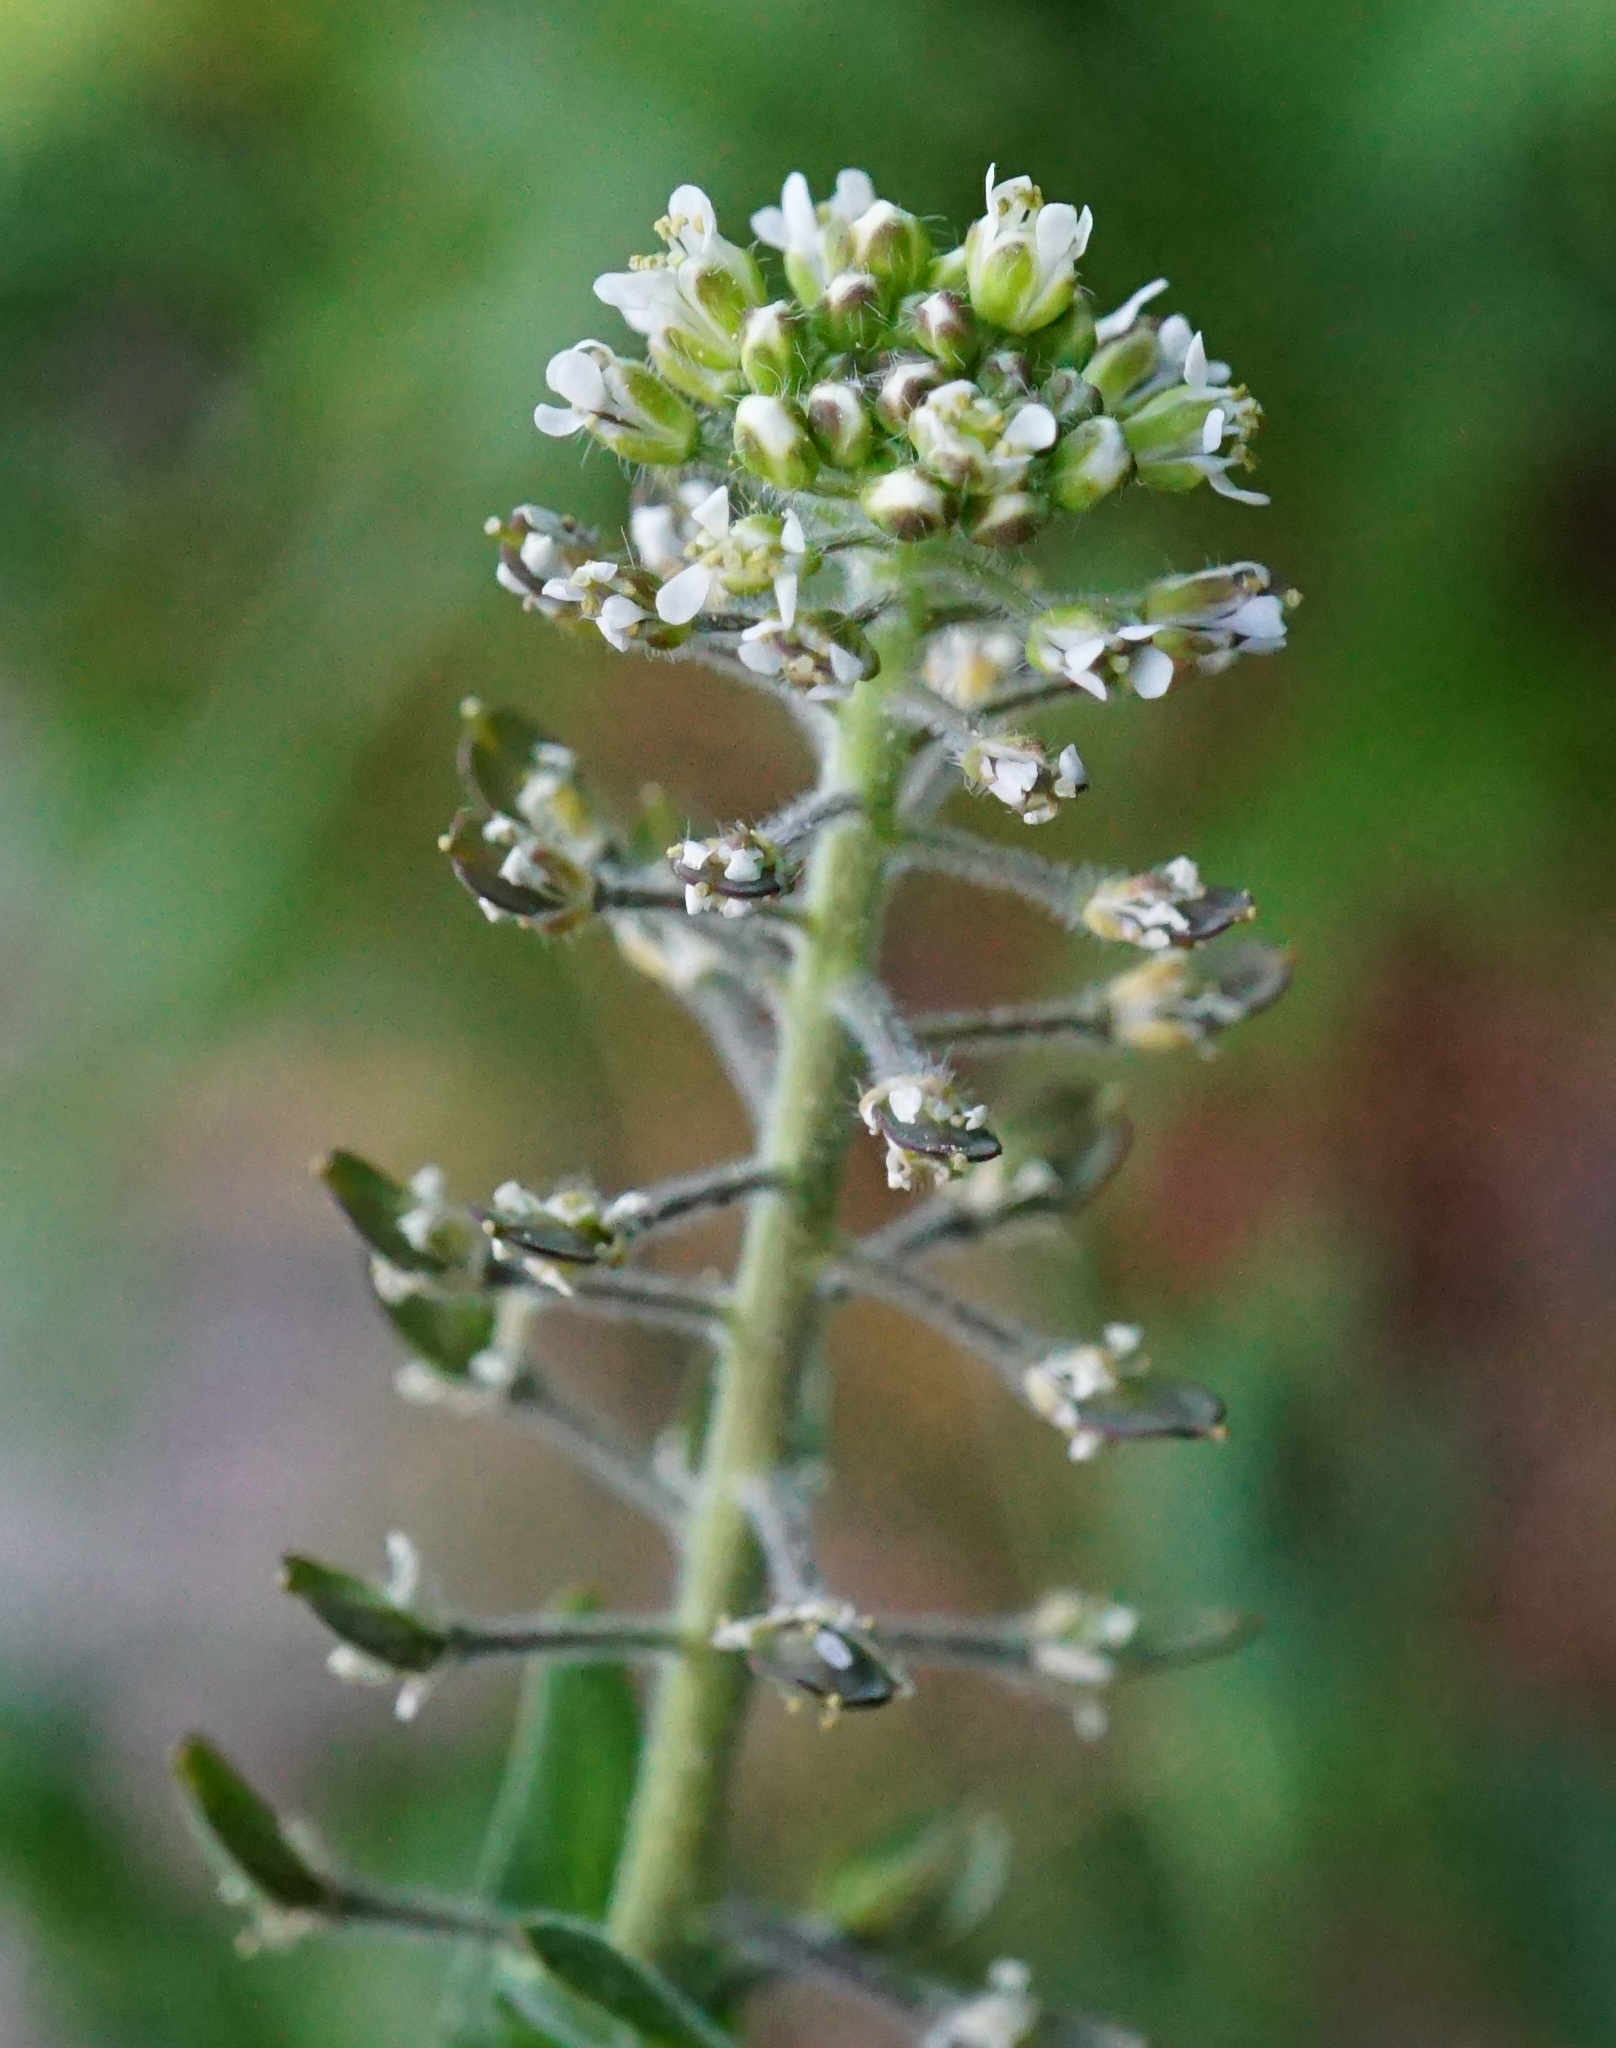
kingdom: Plantae
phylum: Tracheophyta
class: Magnoliopsida
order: Brassicales
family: Brassicaceae
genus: Lepidium
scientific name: Lepidium campestre
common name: Field pepperwort
